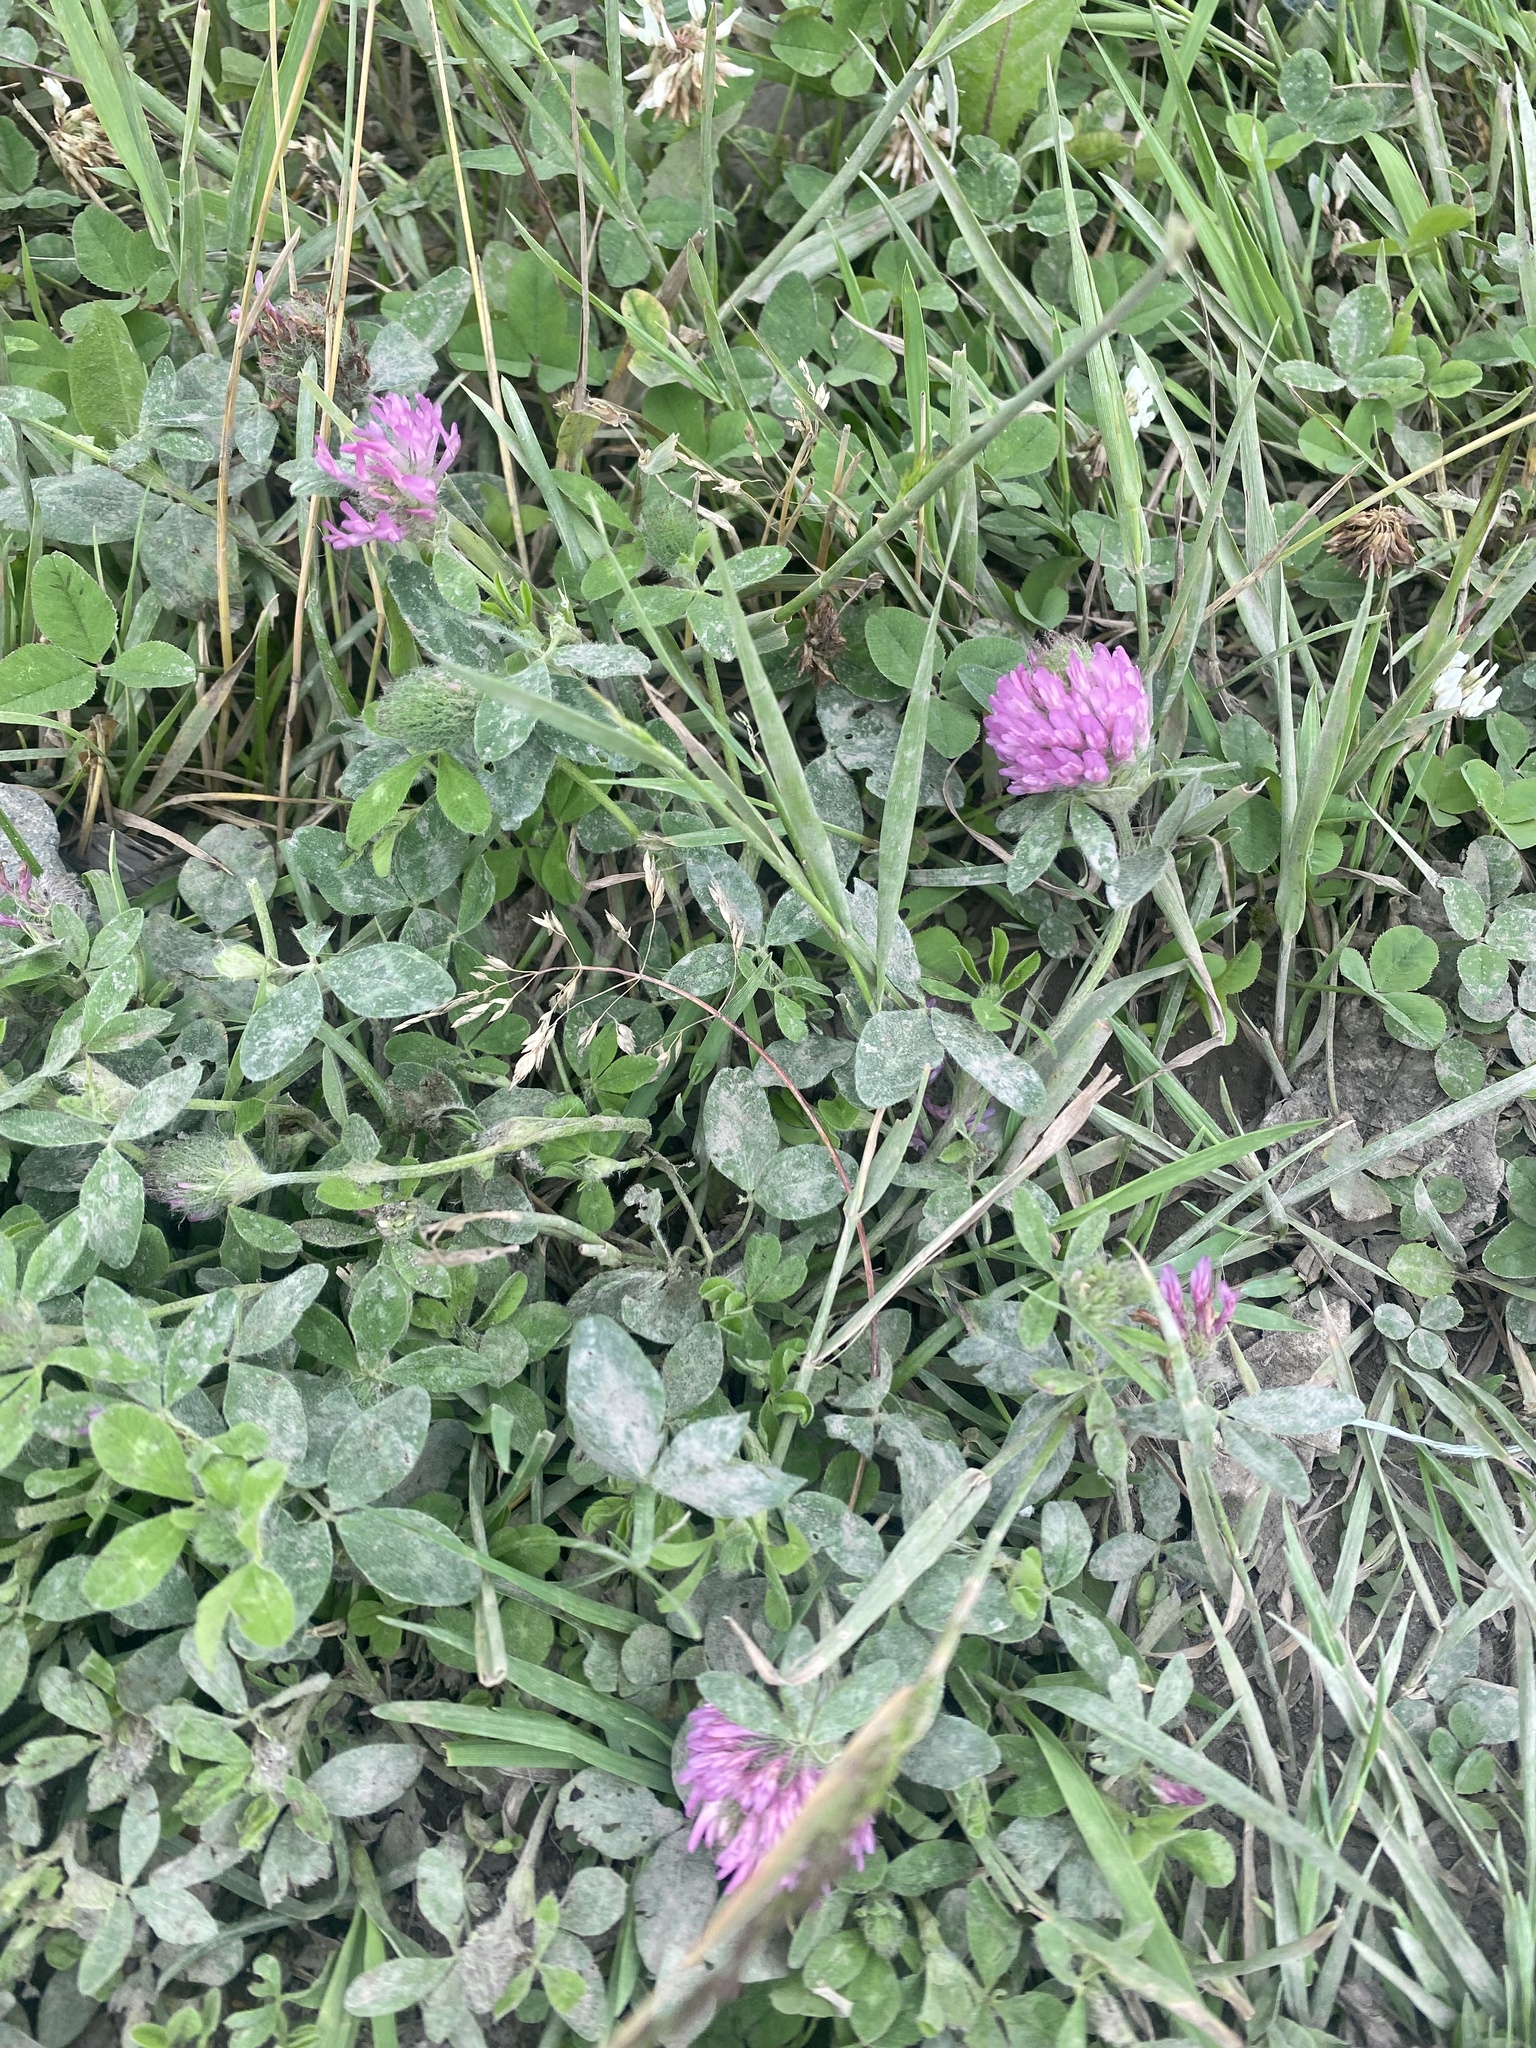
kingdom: Plantae
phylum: Tracheophyta
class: Magnoliopsida
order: Fabales
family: Fabaceae
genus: Trifolium
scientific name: Trifolium pratense
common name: Red clover
